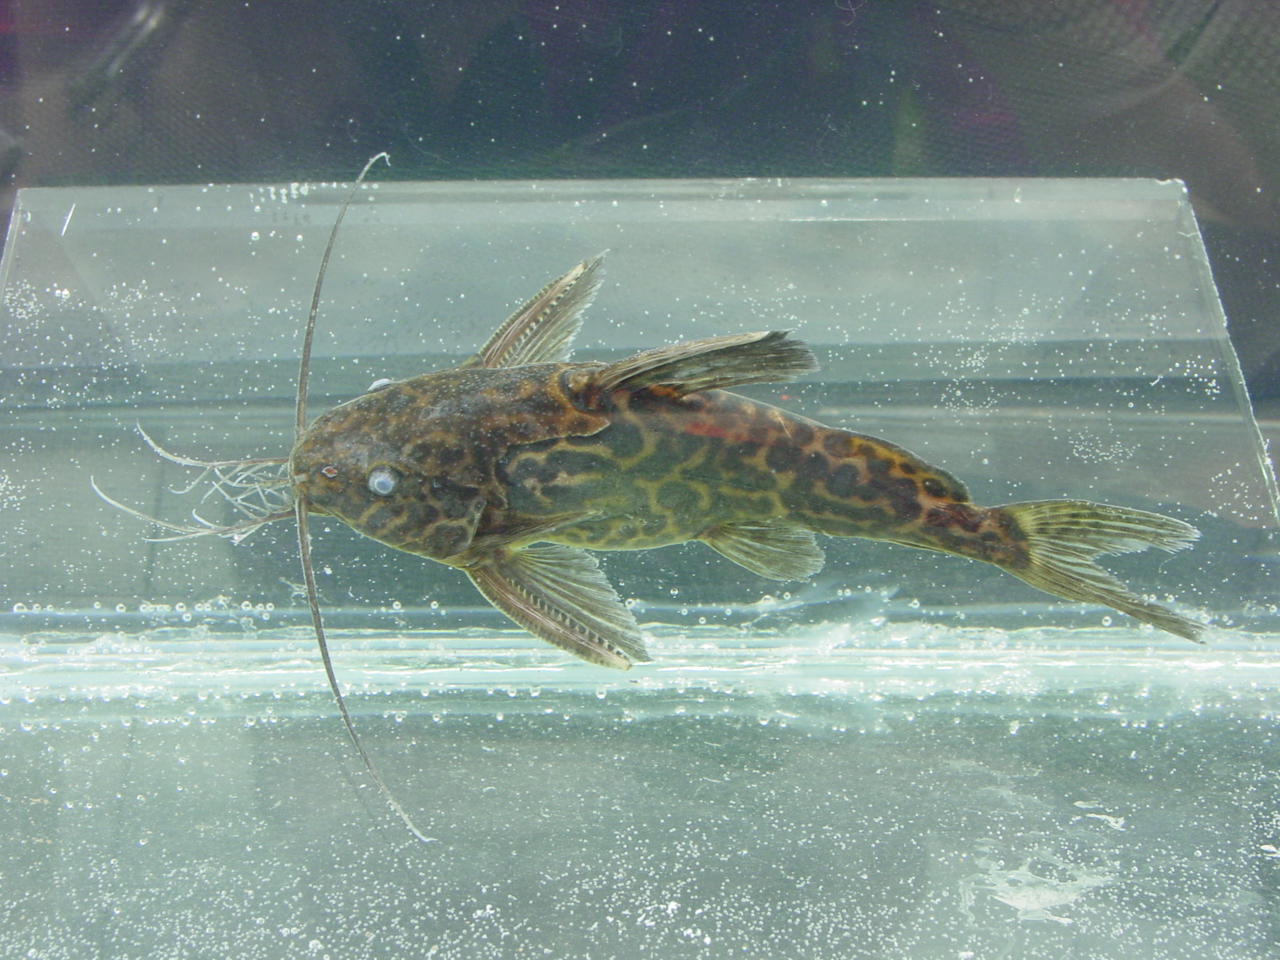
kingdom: Animalia
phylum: Chordata
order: Siluriformes
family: Mochokidae
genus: Synodontis
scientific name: Synodontis schoutedeni
